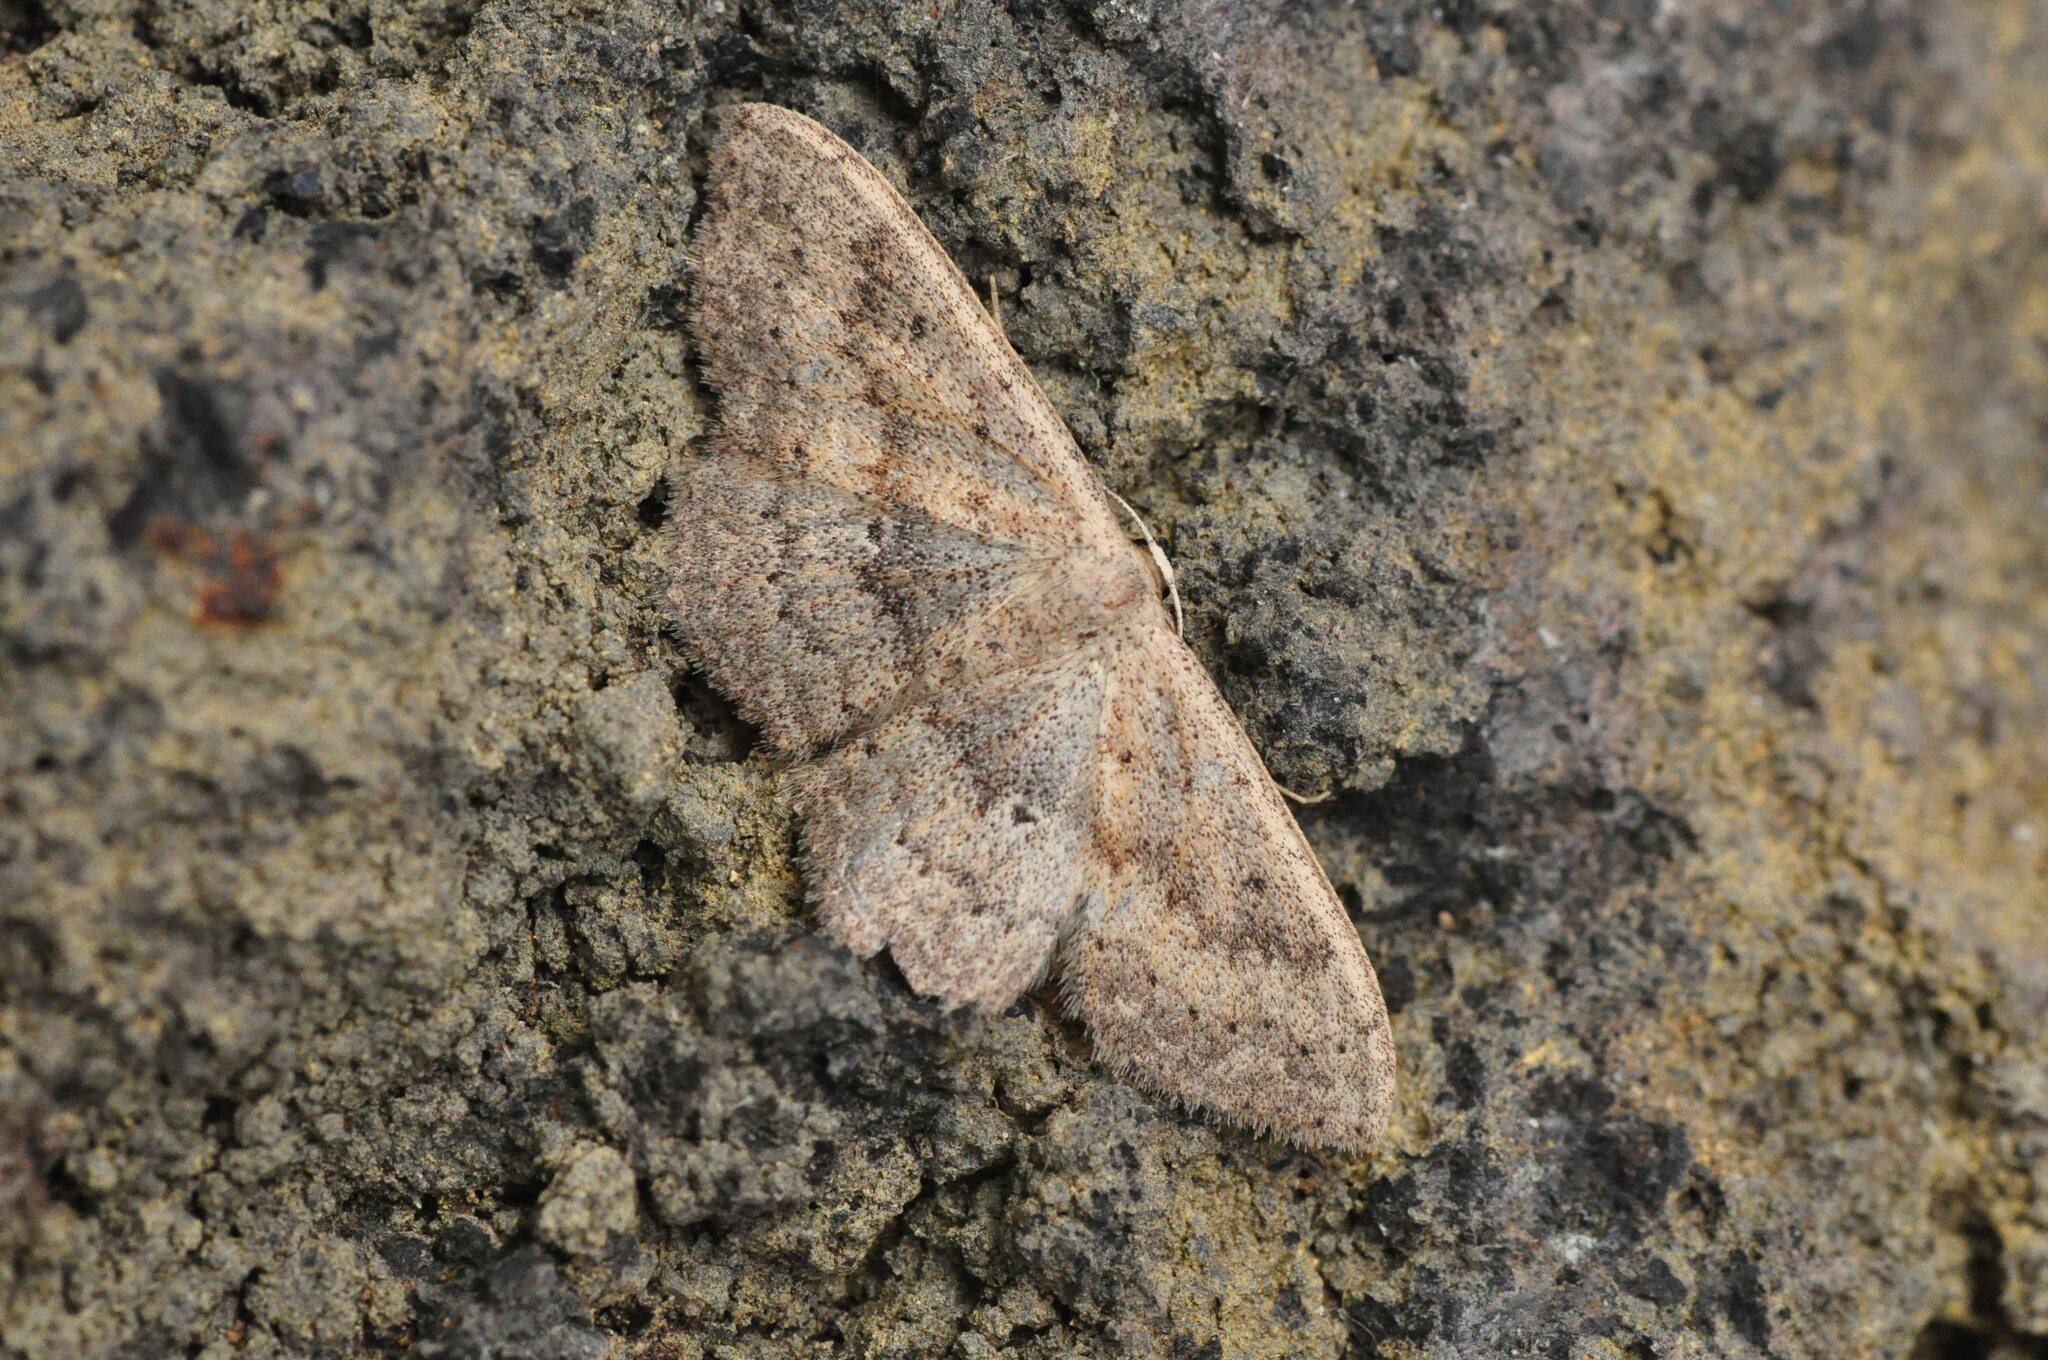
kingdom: Animalia
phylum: Arthropoda
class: Insecta
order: Lepidoptera
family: Geometridae
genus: Scopula
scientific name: Scopula guancharia
